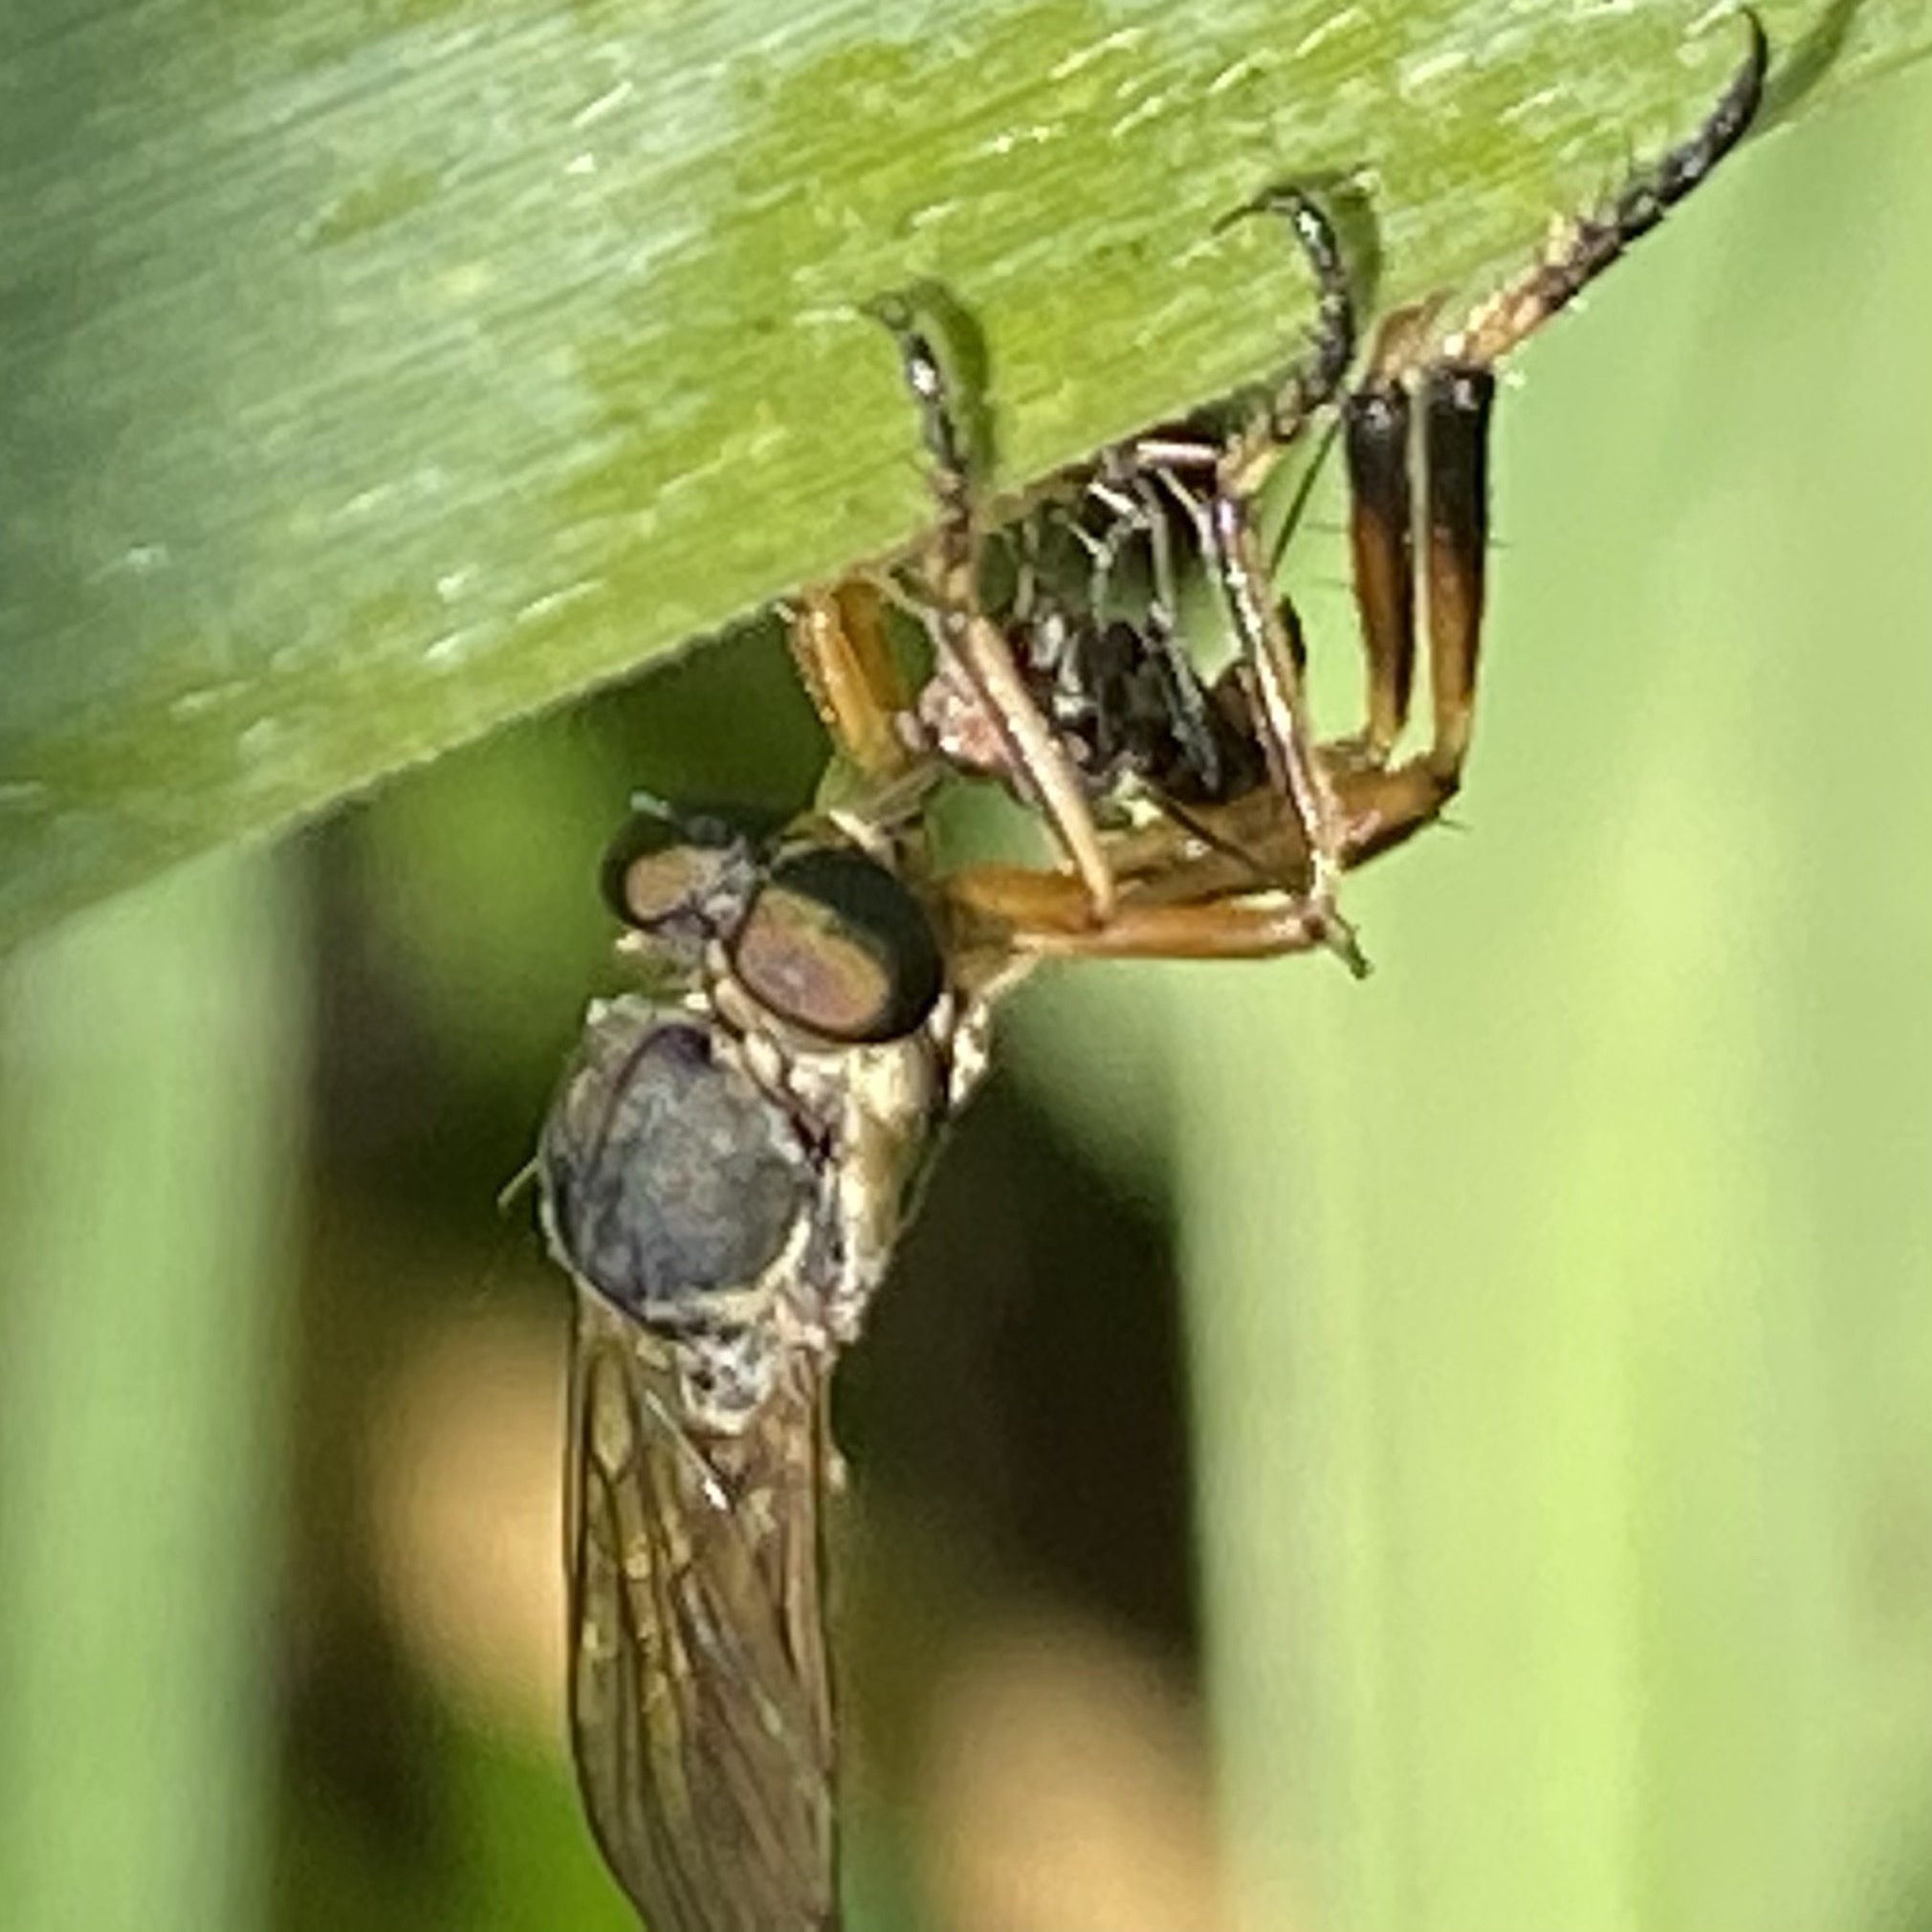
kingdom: Animalia
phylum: Arthropoda
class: Insecta
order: Diptera
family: Asilidae
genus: Leptogaster
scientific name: Leptogaster cylindrica
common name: Striped slender robberfly
